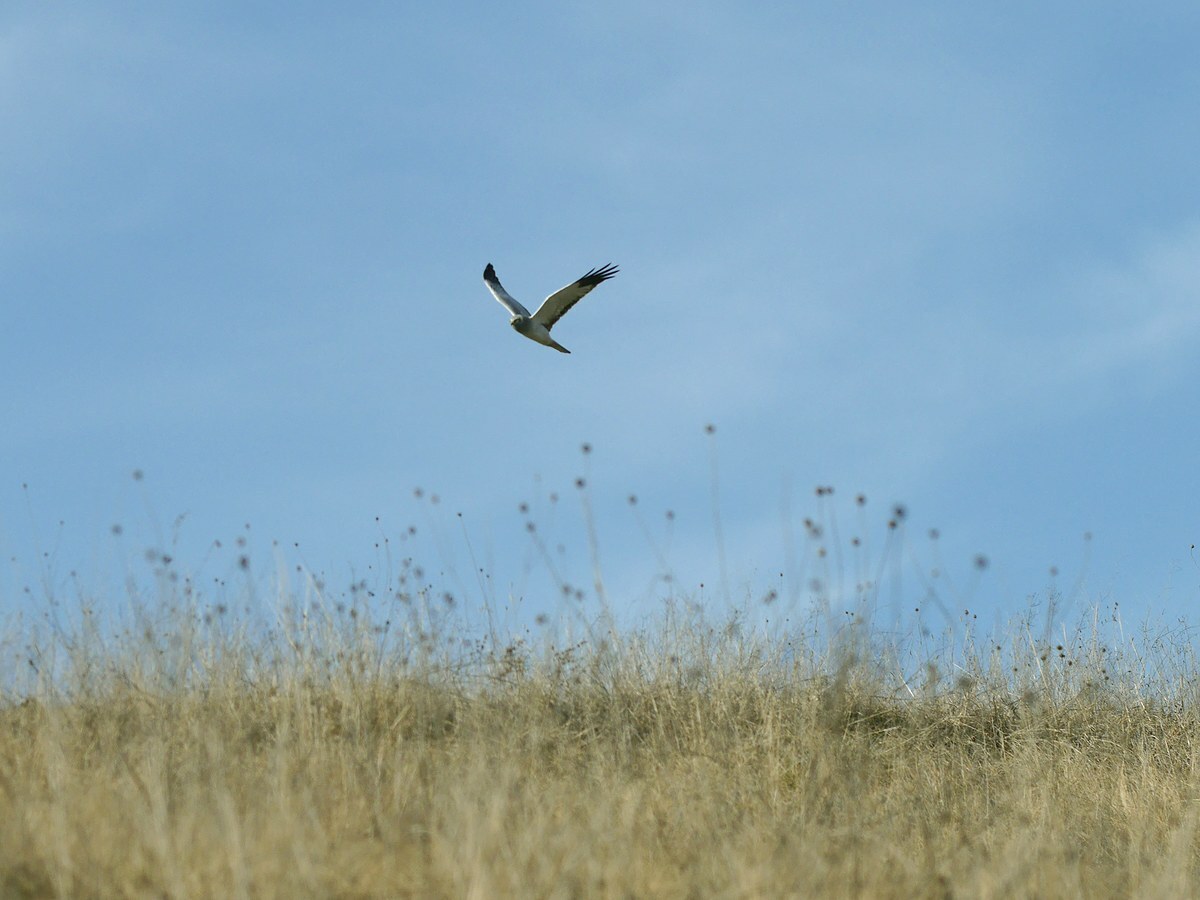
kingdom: Animalia
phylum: Chordata
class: Aves
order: Accipitriformes
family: Accipitridae
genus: Circus
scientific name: Circus cyaneus
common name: Hen harrier
